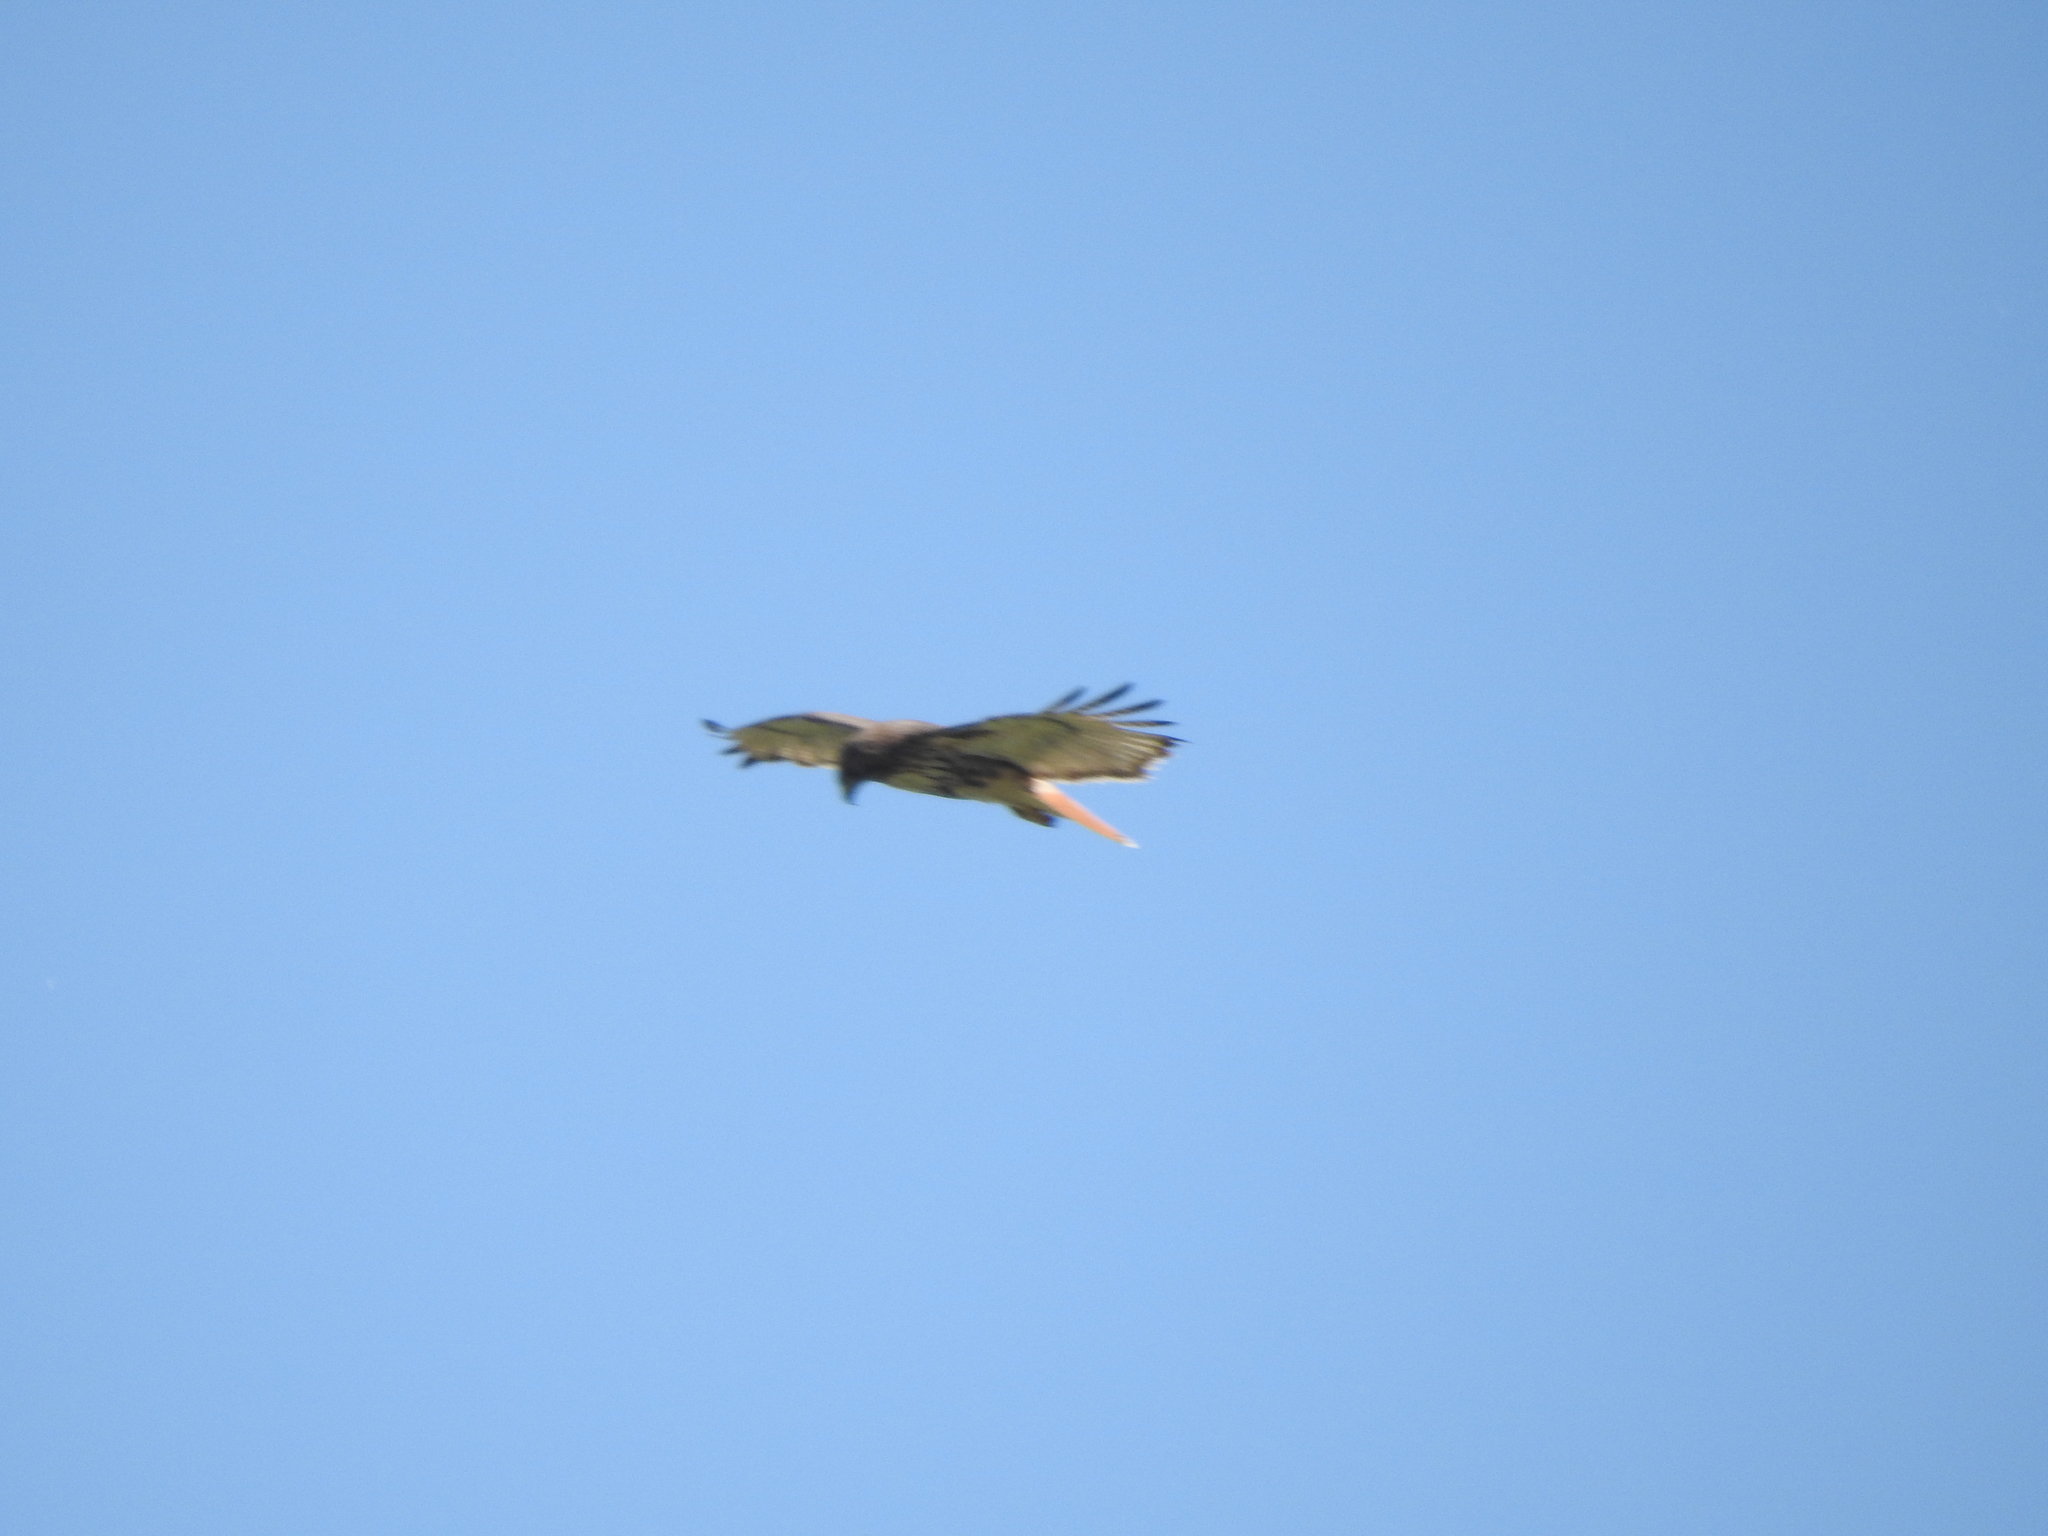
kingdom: Animalia
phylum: Chordata
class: Aves
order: Accipitriformes
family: Accipitridae
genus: Buteo
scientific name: Buteo jamaicensis
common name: Red-tailed hawk
